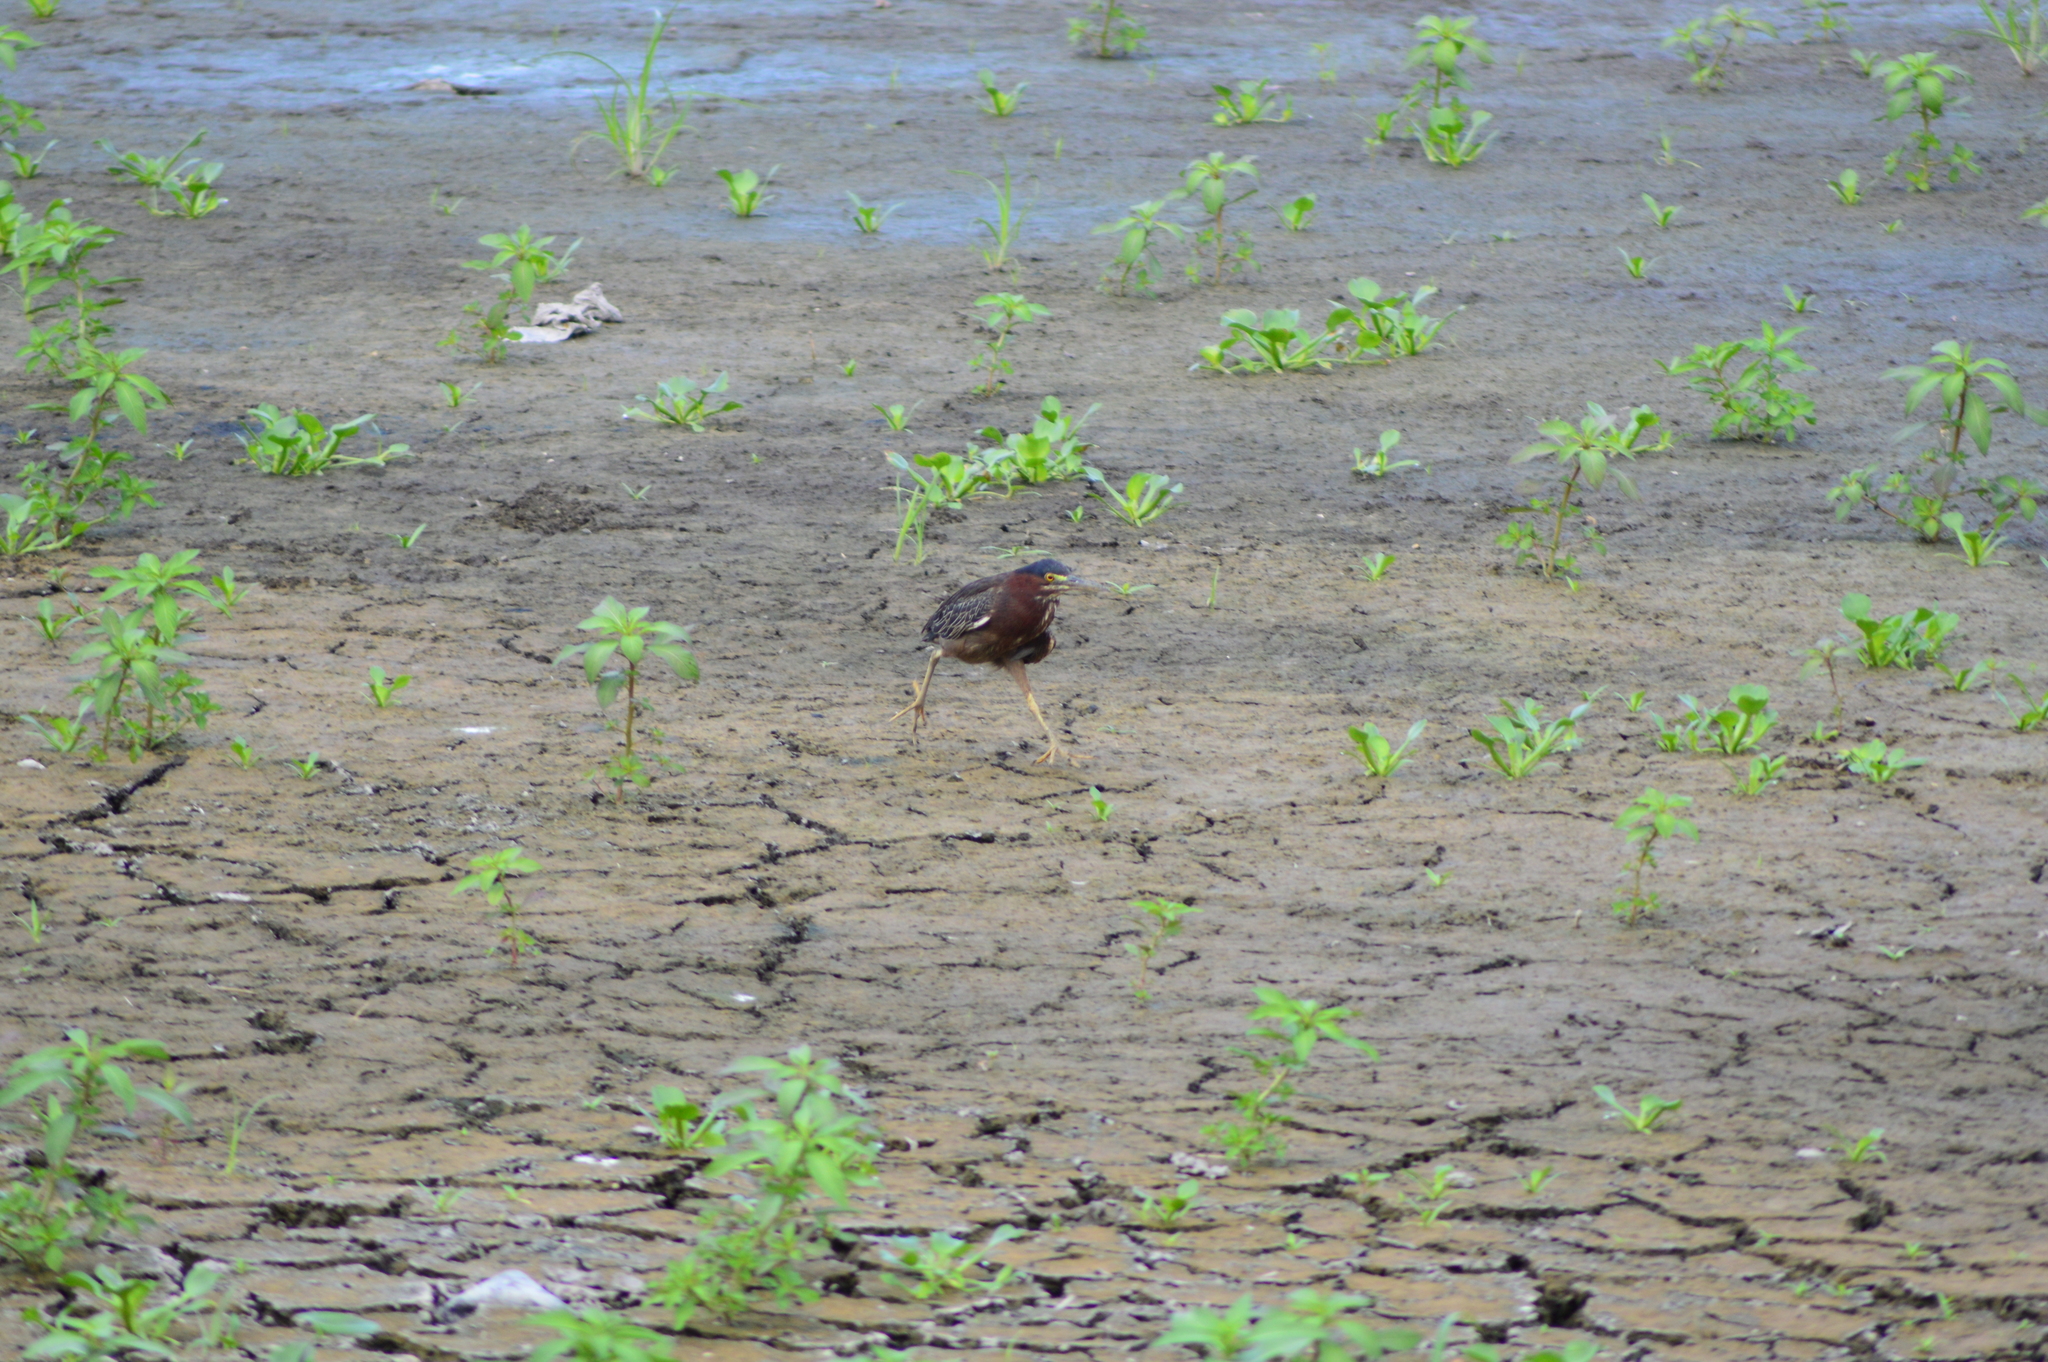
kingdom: Animalia
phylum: Chordata
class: Aves
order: Pelecaniformes
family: Ardeidae
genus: Butorides
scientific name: Butorides virescens
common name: Green heron
